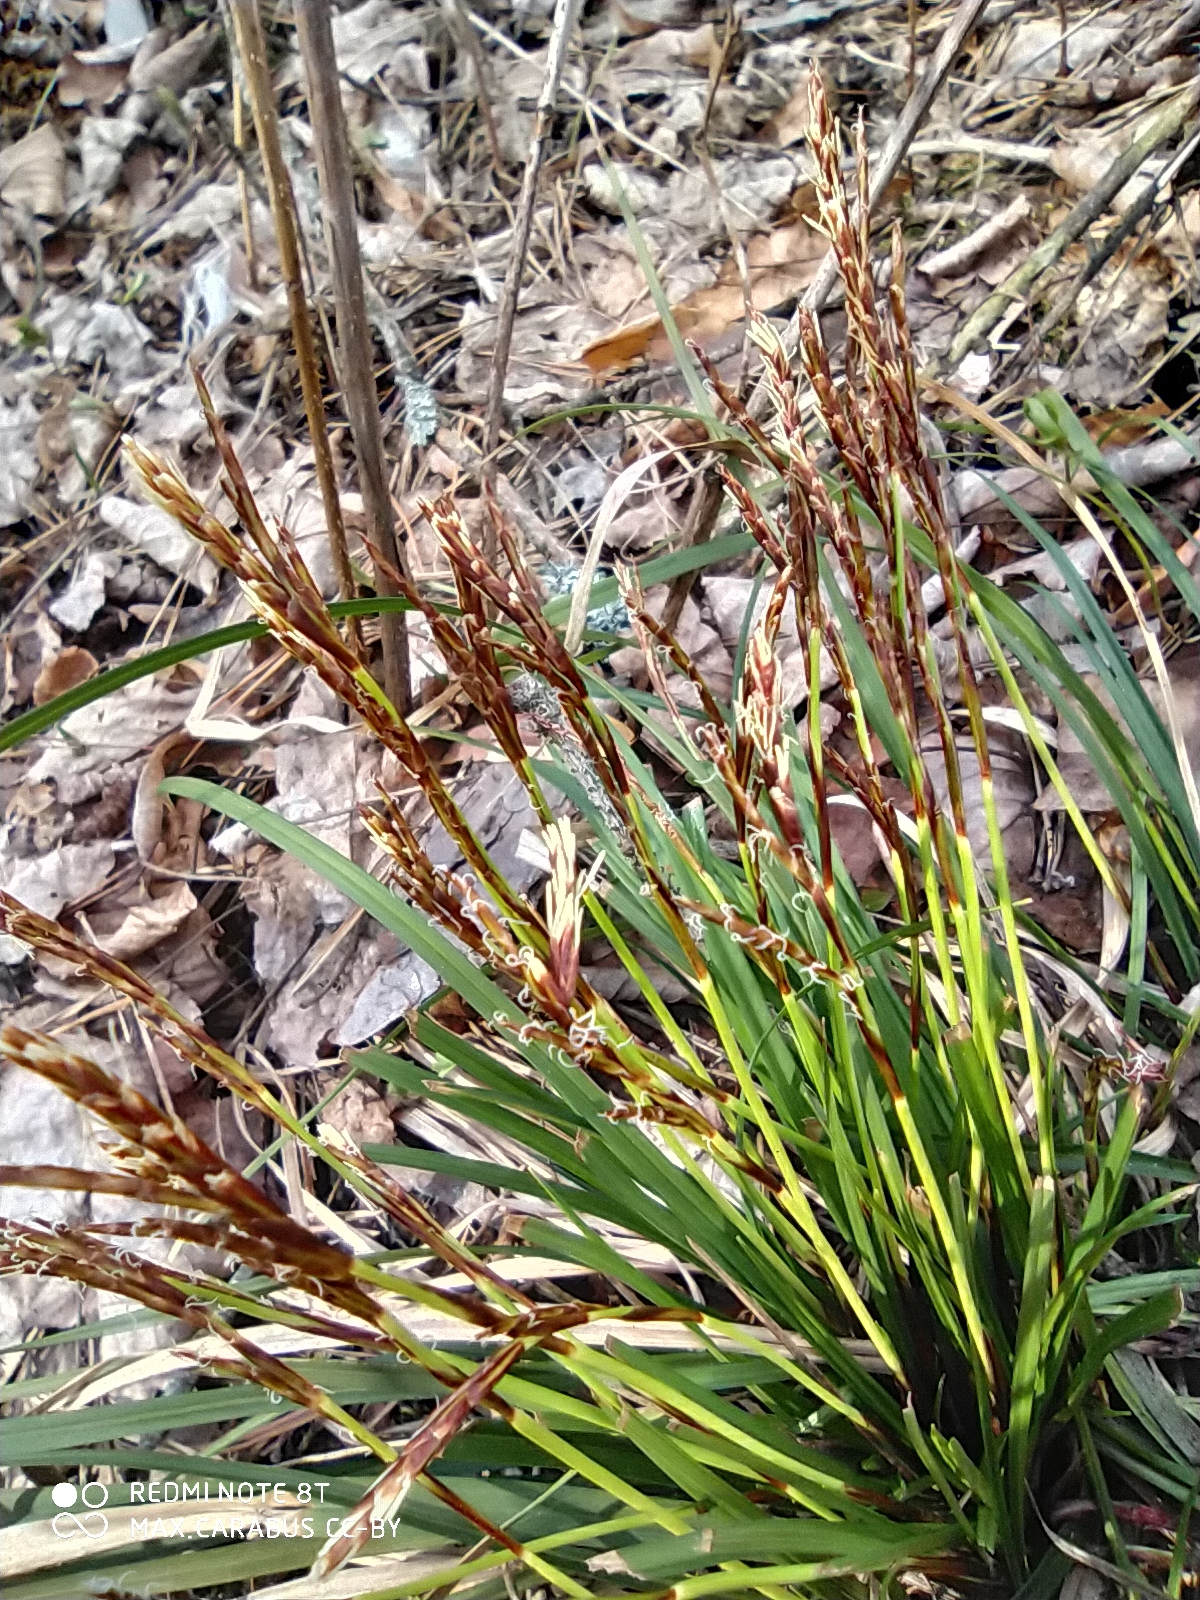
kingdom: Plantae
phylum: Tracheophyta
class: Liliopsida
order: Poales
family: Cyperaceae
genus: Carex
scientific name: Carex digitata
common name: Fingered sedge
